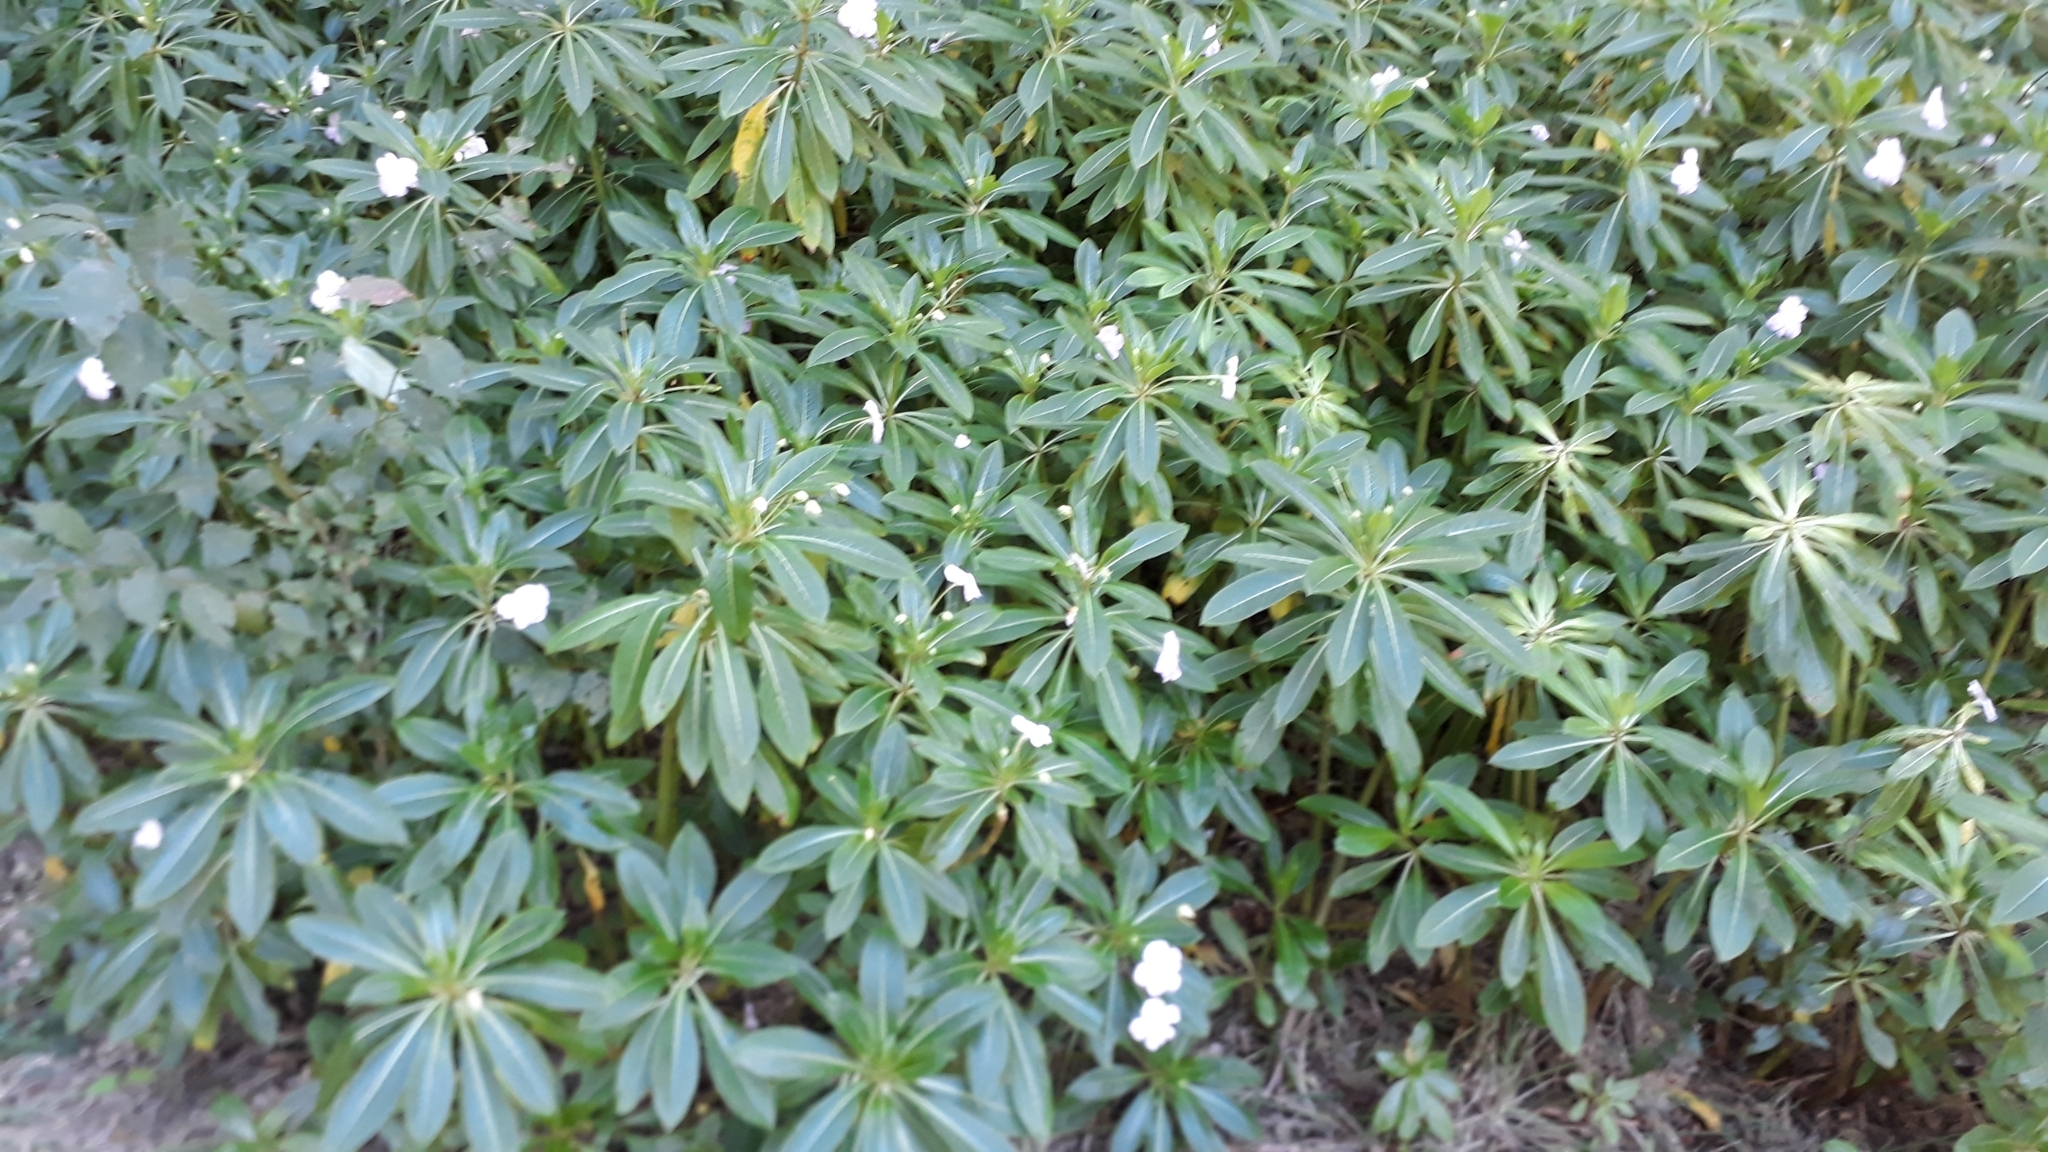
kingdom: Plantae
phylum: Tracheophyta
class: Magnoliopsida
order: Ericales
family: Balsaminaceae
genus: Impatiens
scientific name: Impatiens sodenii
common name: Oliver's touch-me-not
